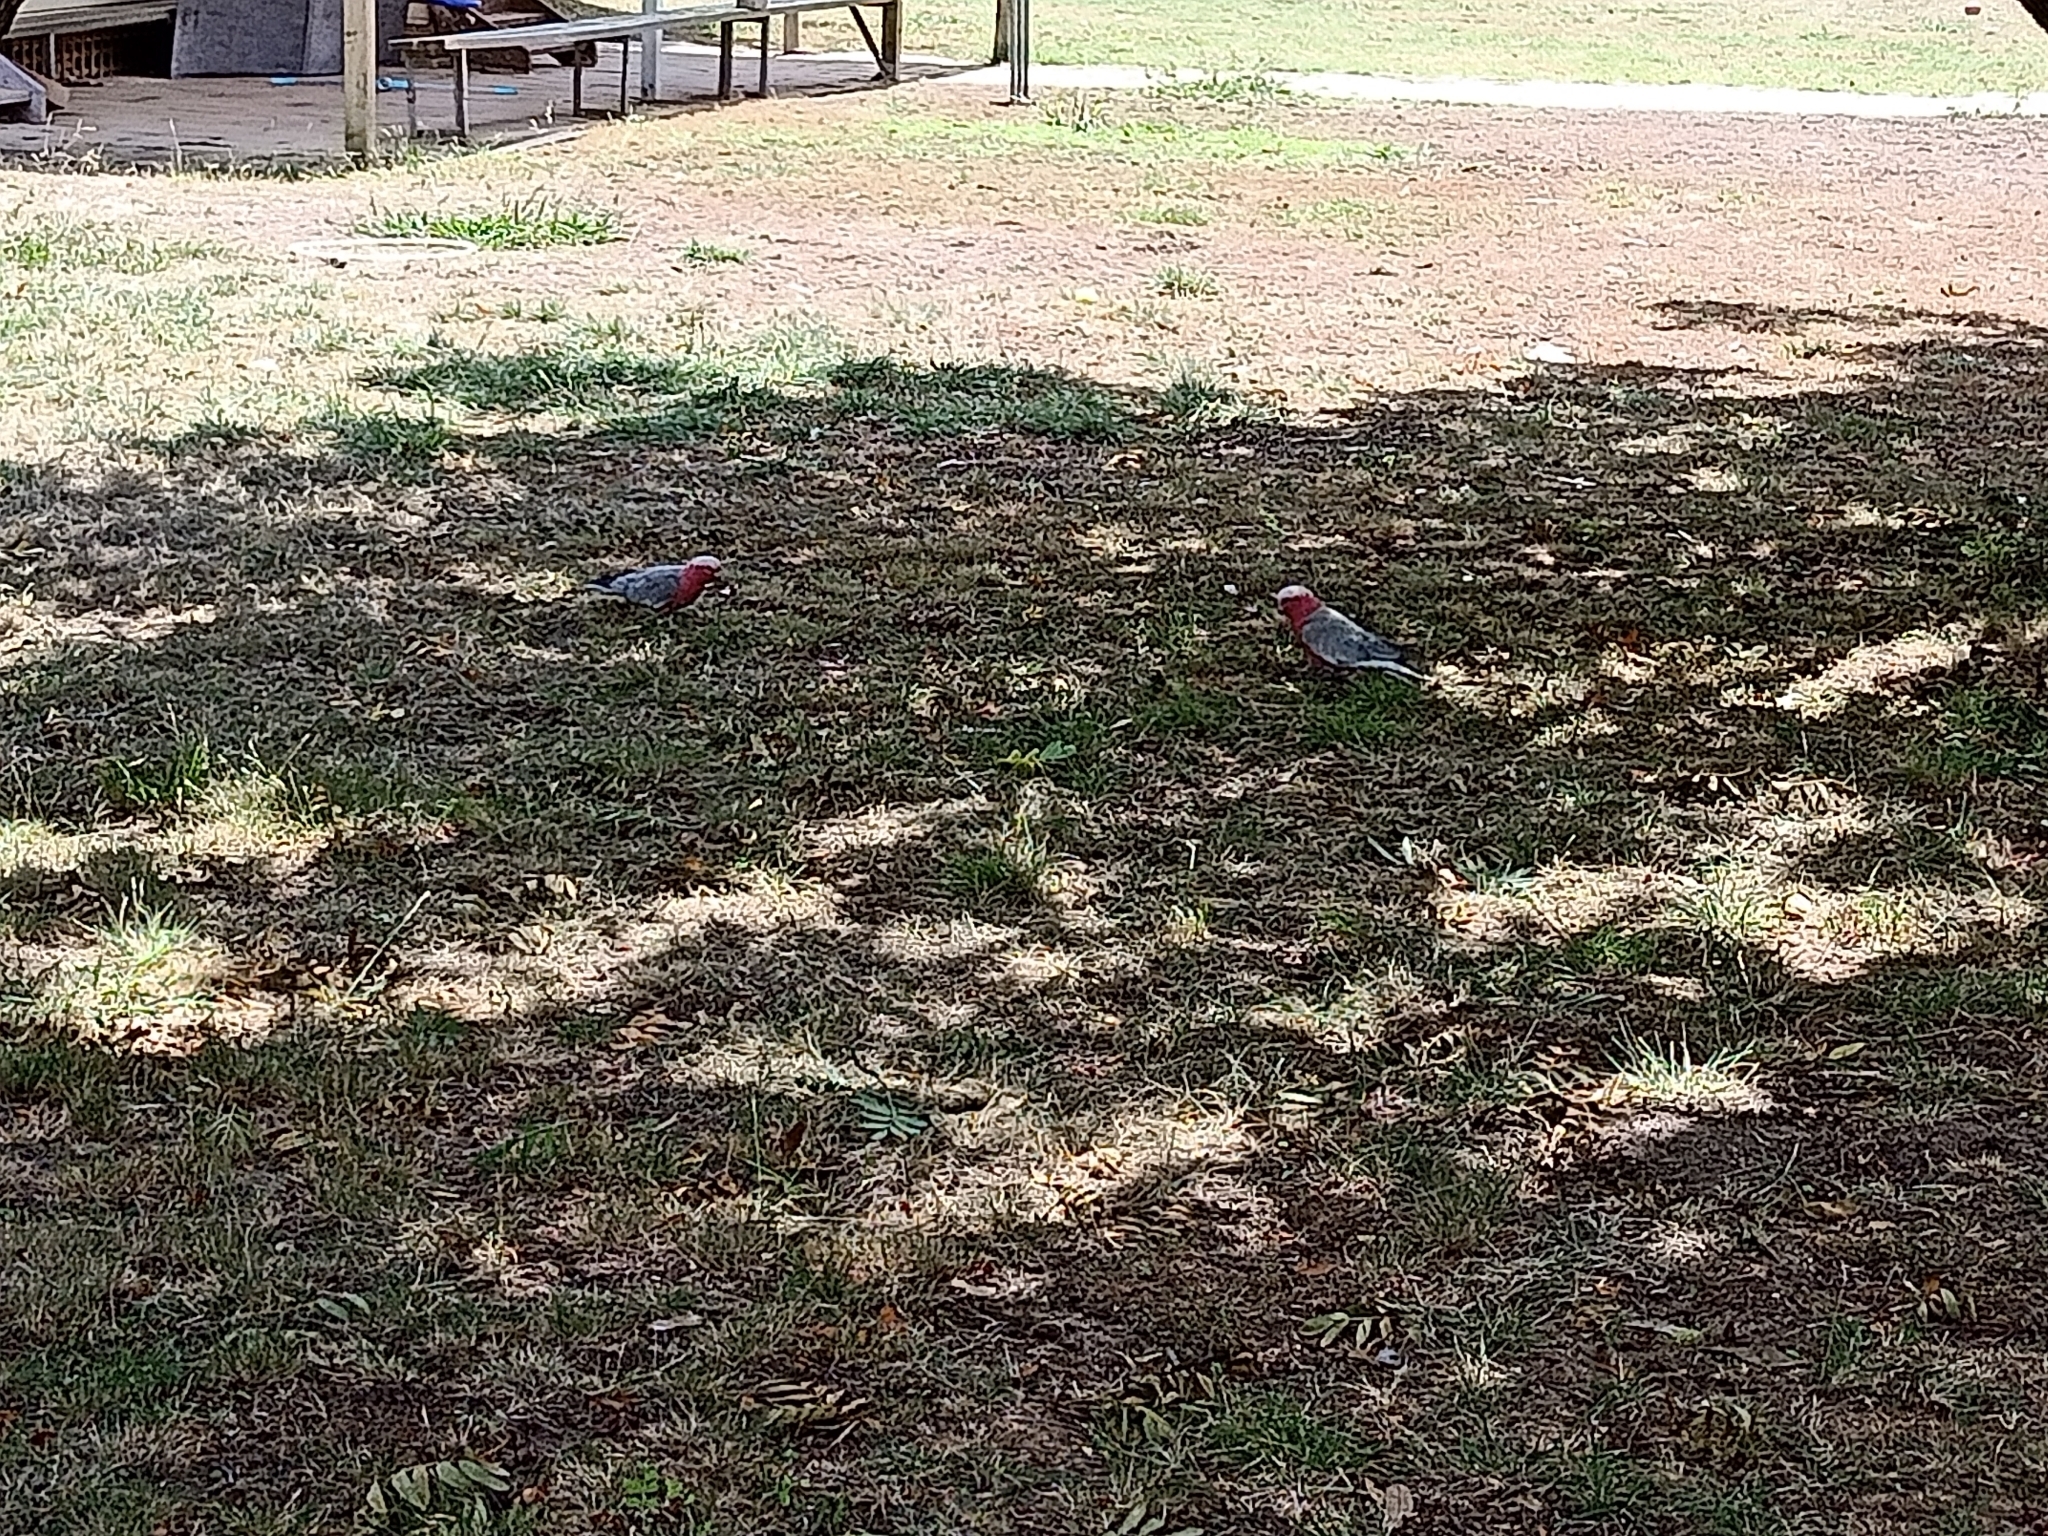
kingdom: Animalia
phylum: Chordata
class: Aves
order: Psittaciformes
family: Psittacidae
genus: Eolophus
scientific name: Eolophus roseicapilla
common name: Galah
